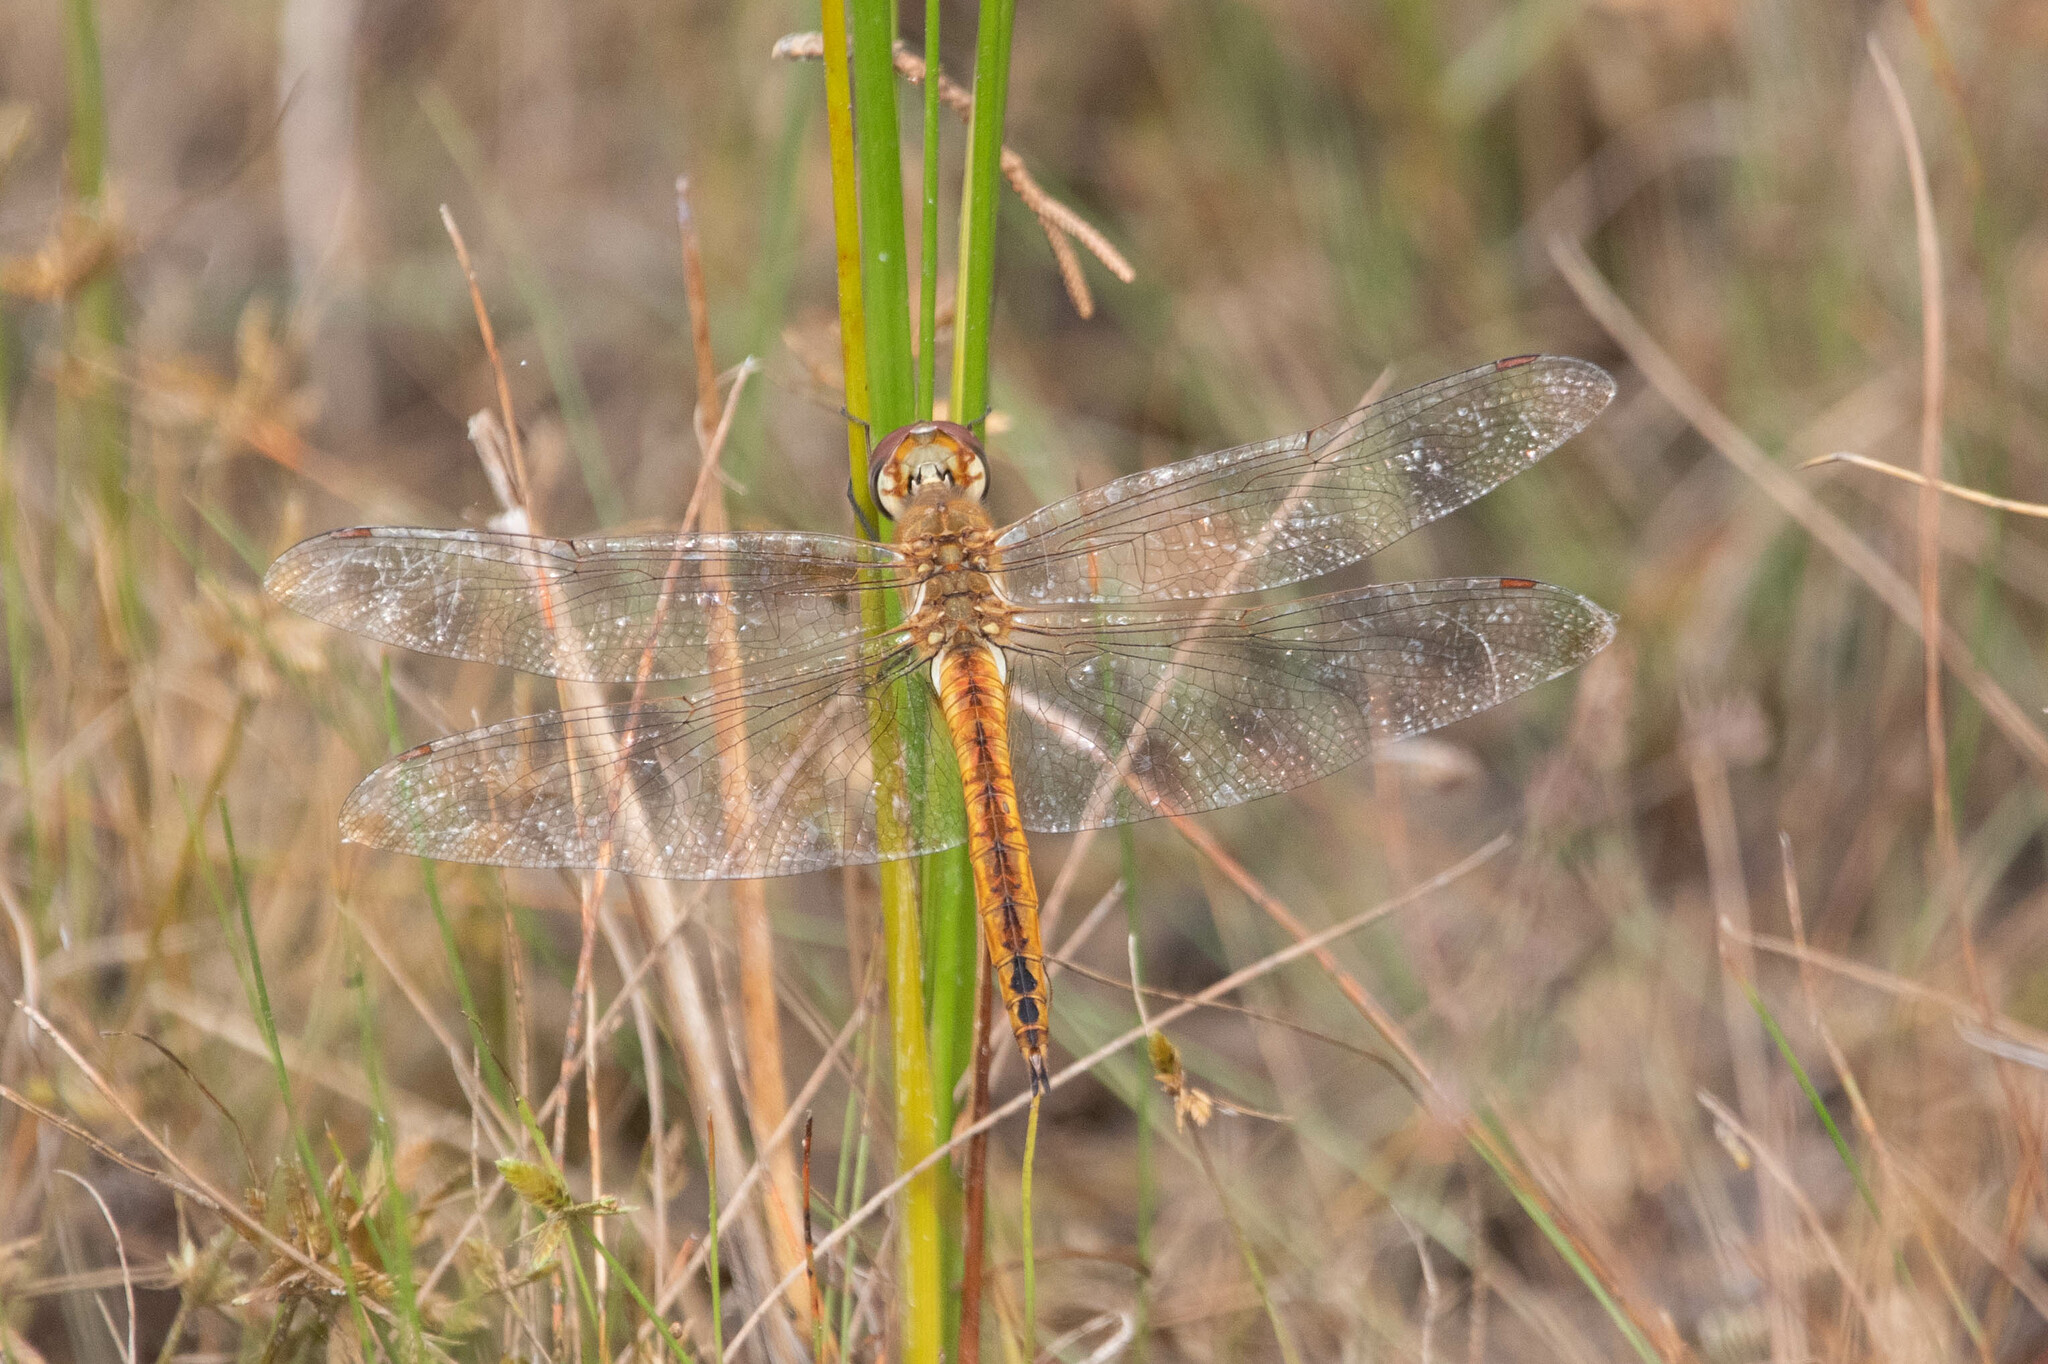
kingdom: Animalia
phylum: Arthropoda
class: Insecta
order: Odonata
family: Libellulidae
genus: Pantala
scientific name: Pantala flavescens
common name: Wandering glider
